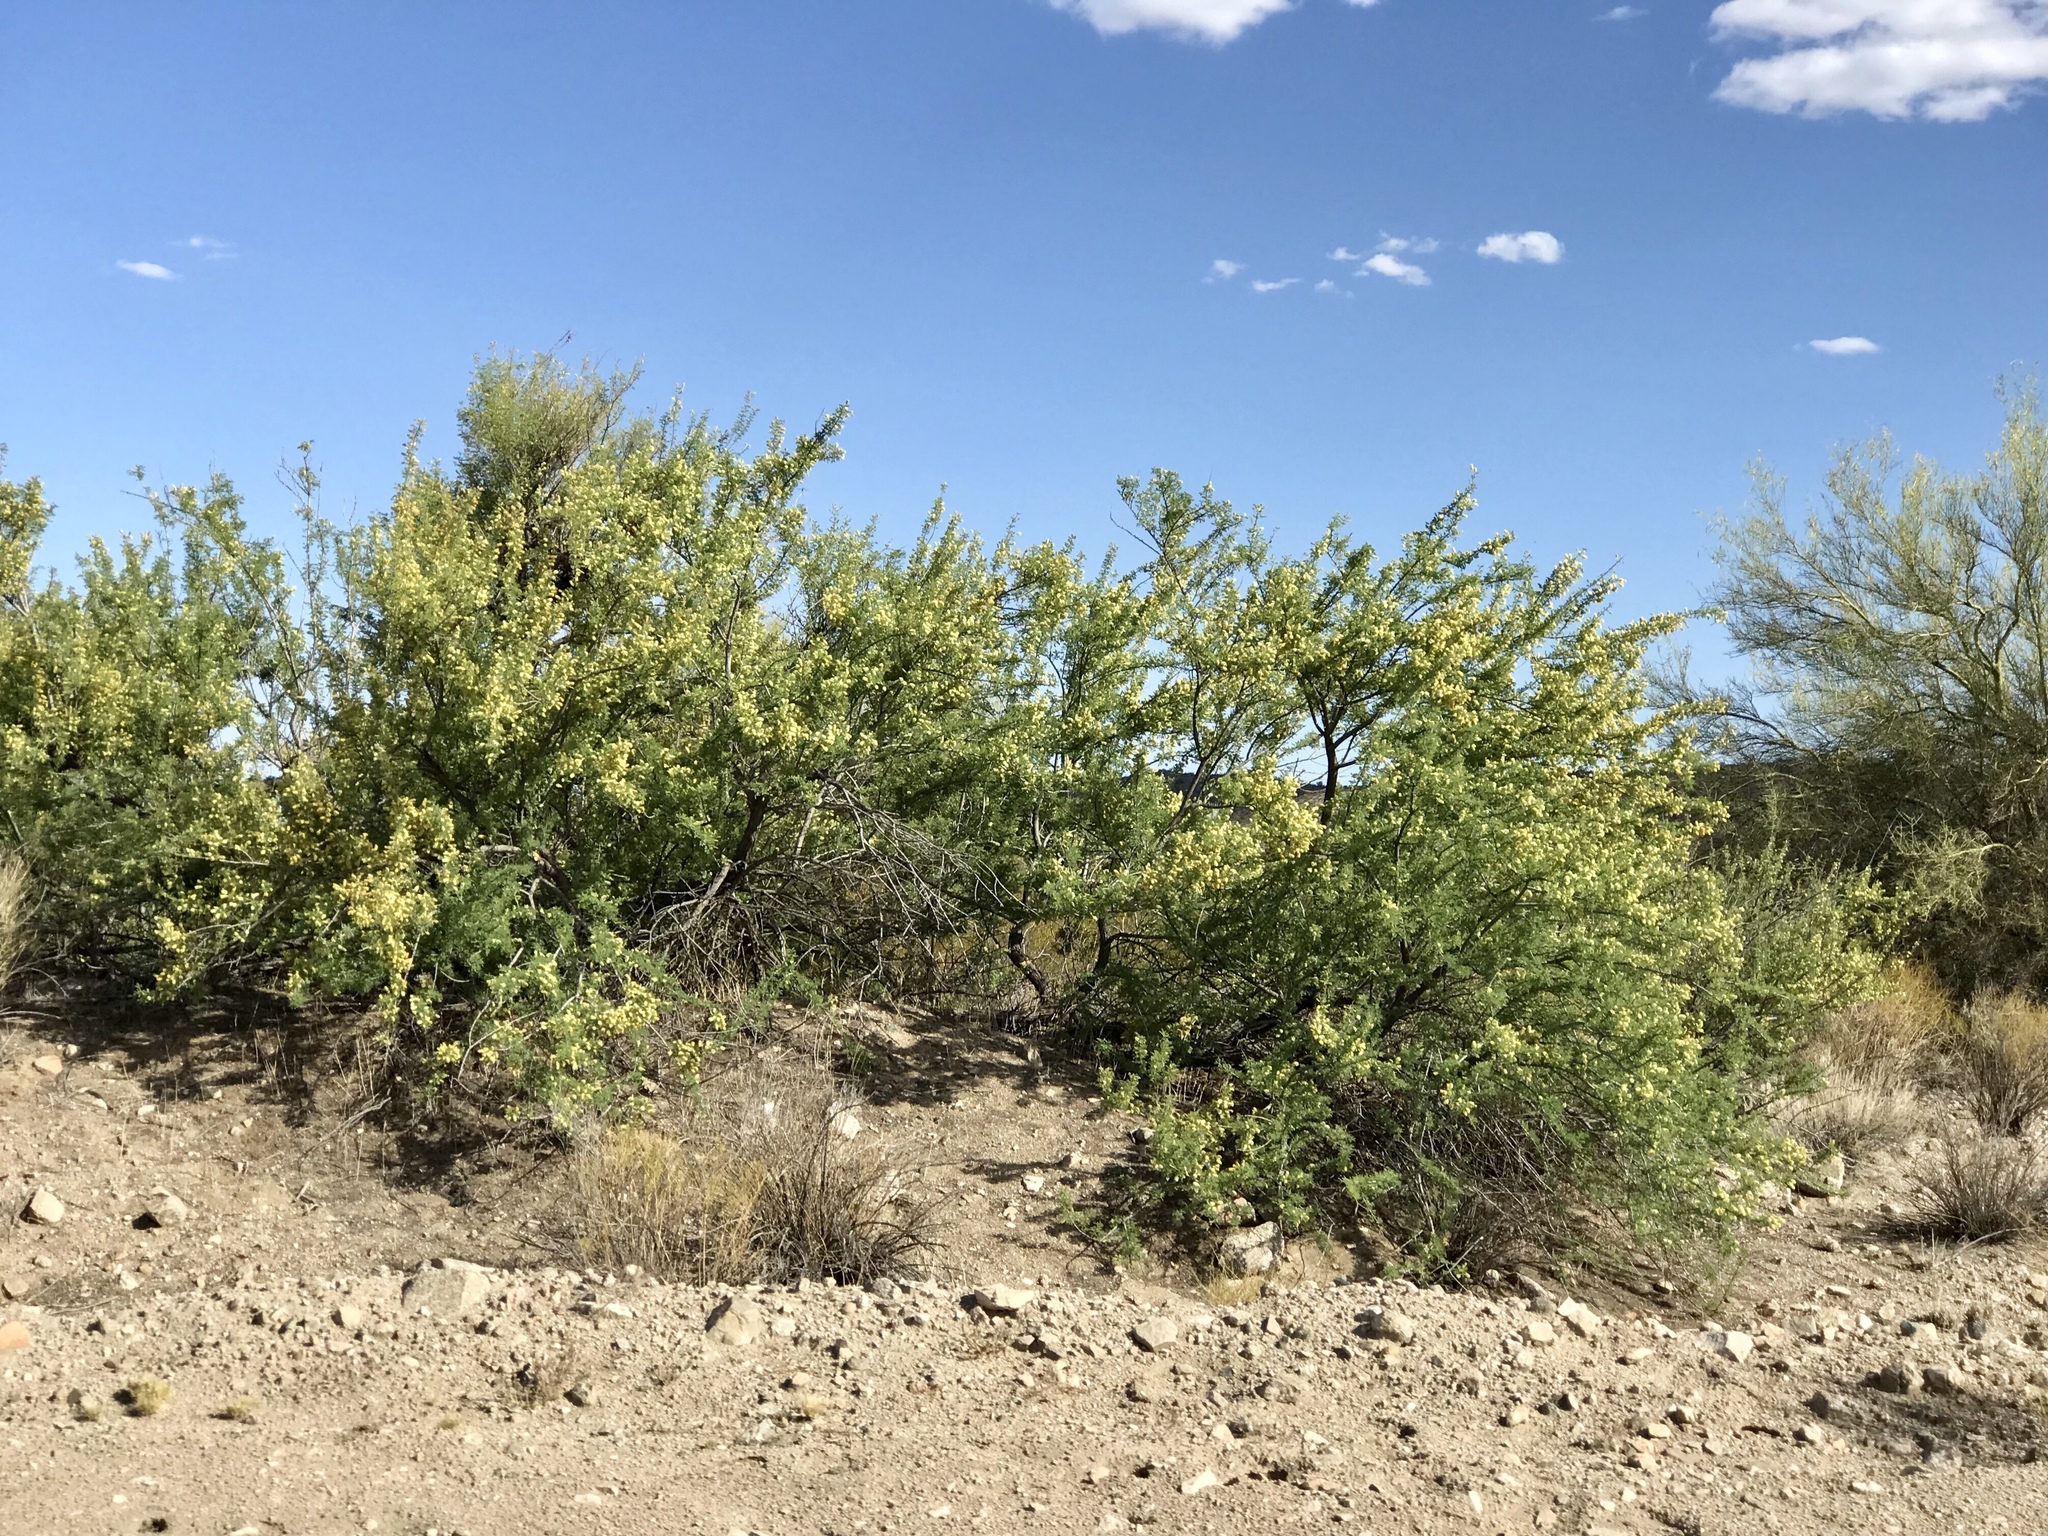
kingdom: Plantae
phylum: Tracheophyta
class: Magnoliopsida
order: Fabales
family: Fabaceae
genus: Senegalia
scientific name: Senegalia greggii
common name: Texas-mimosa
